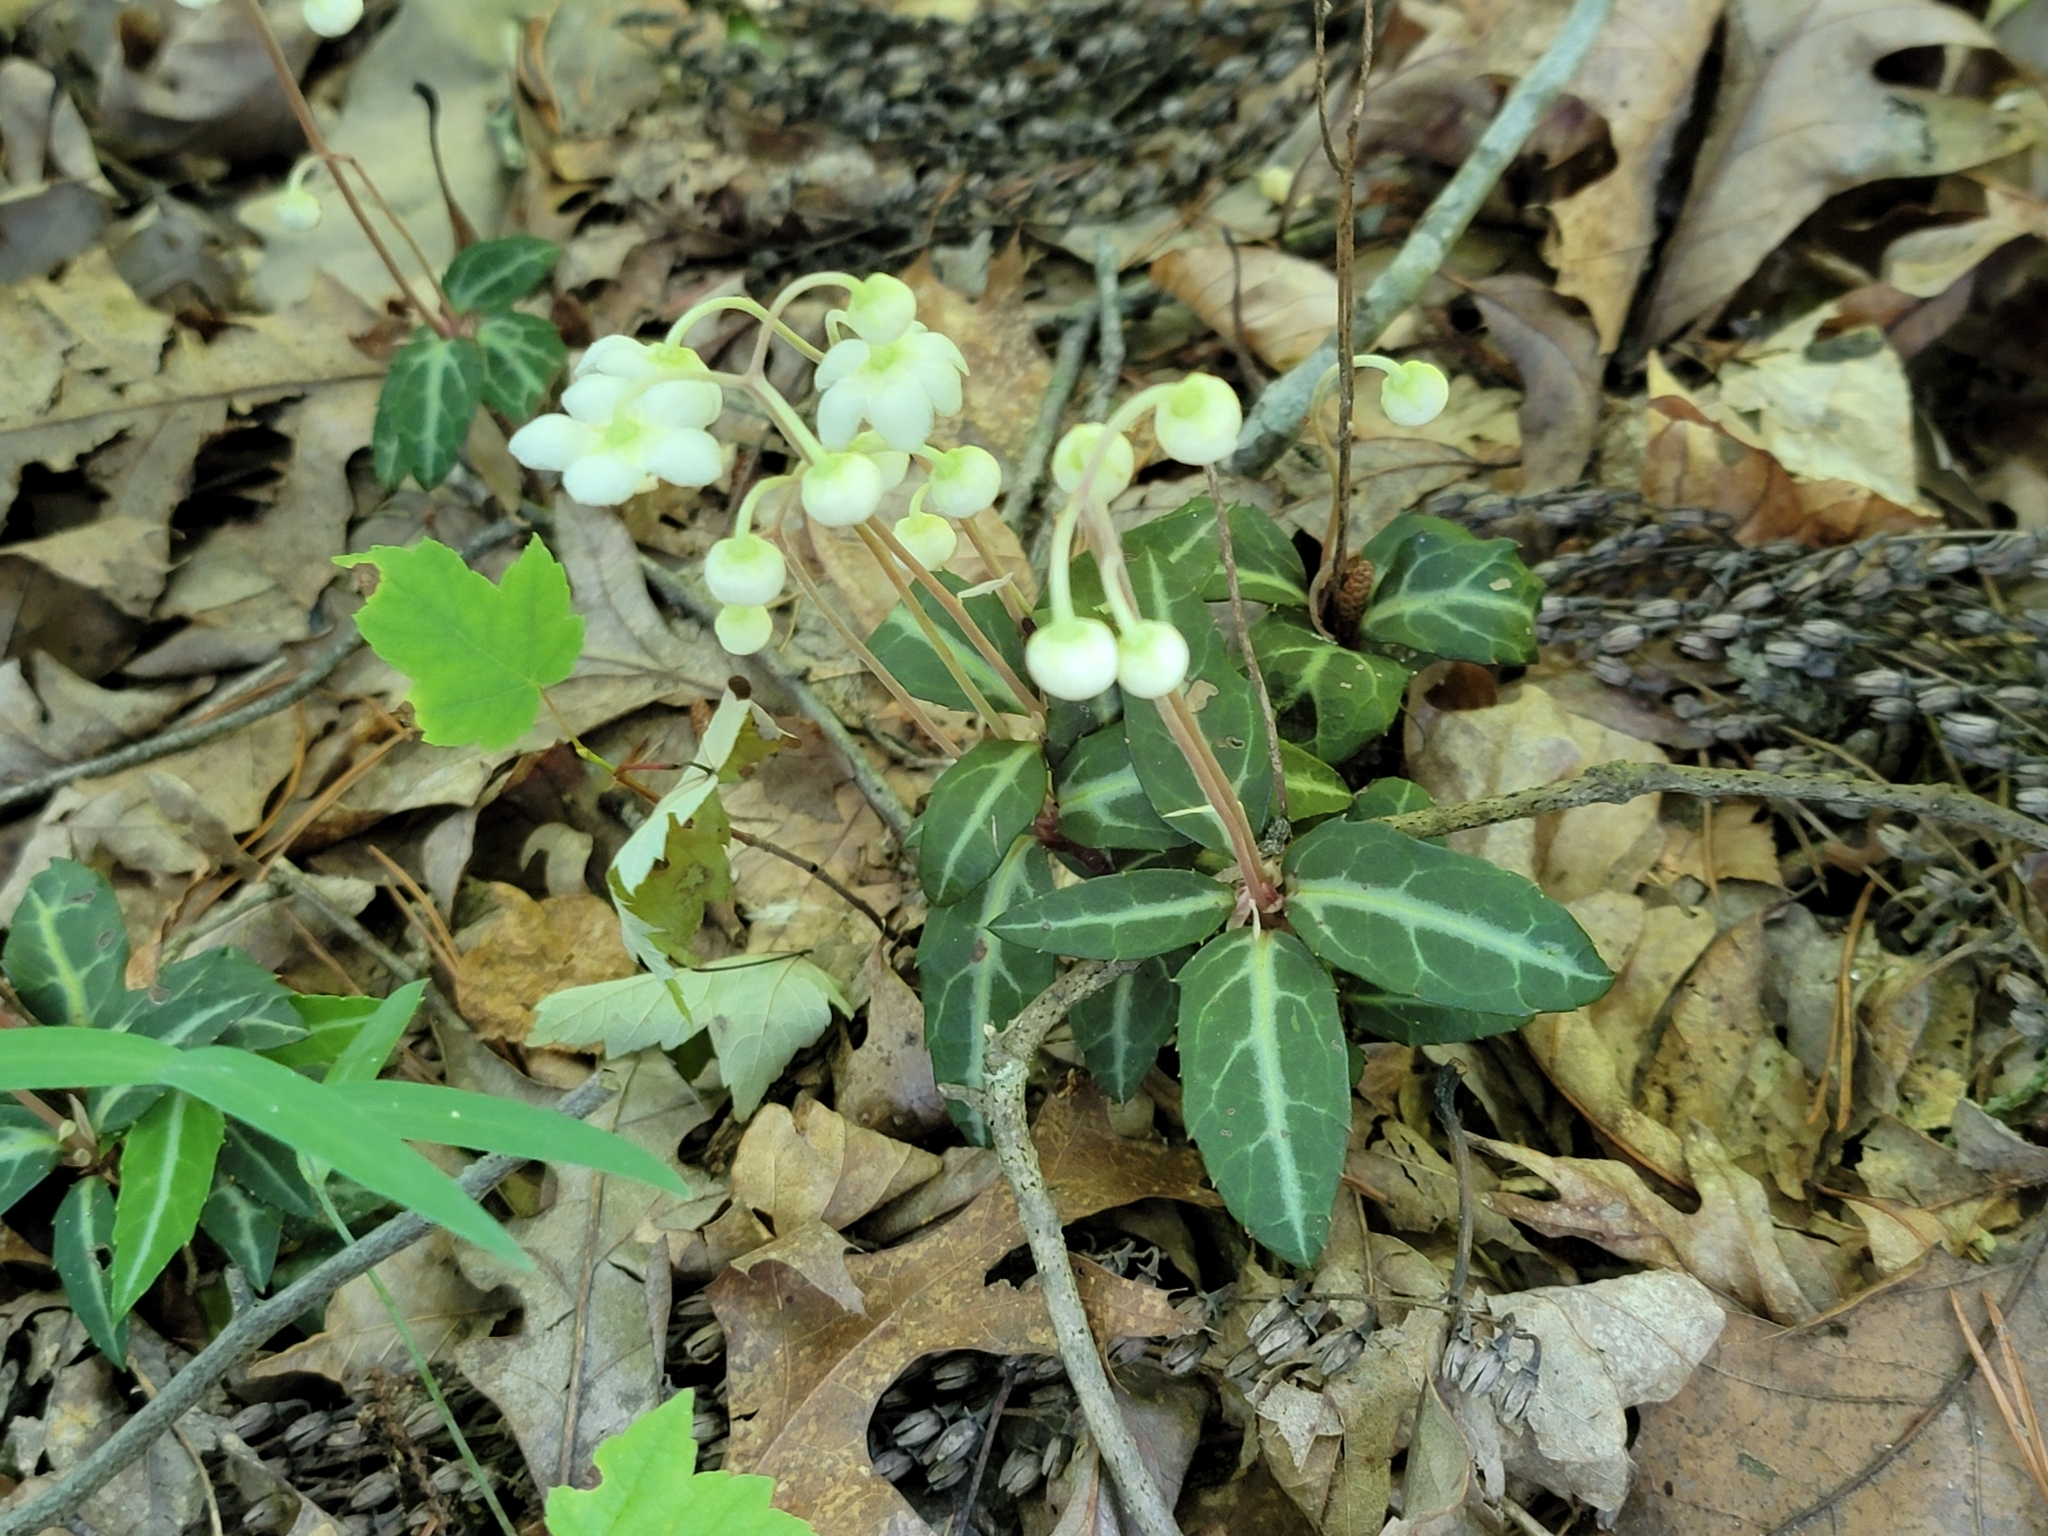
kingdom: Plantae
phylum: Tracheophyta
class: Magnoliopsida
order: Ericales
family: Ericaceae
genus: Chimaphila
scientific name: Chimaphila maculata
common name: Spotted pipsissewa
